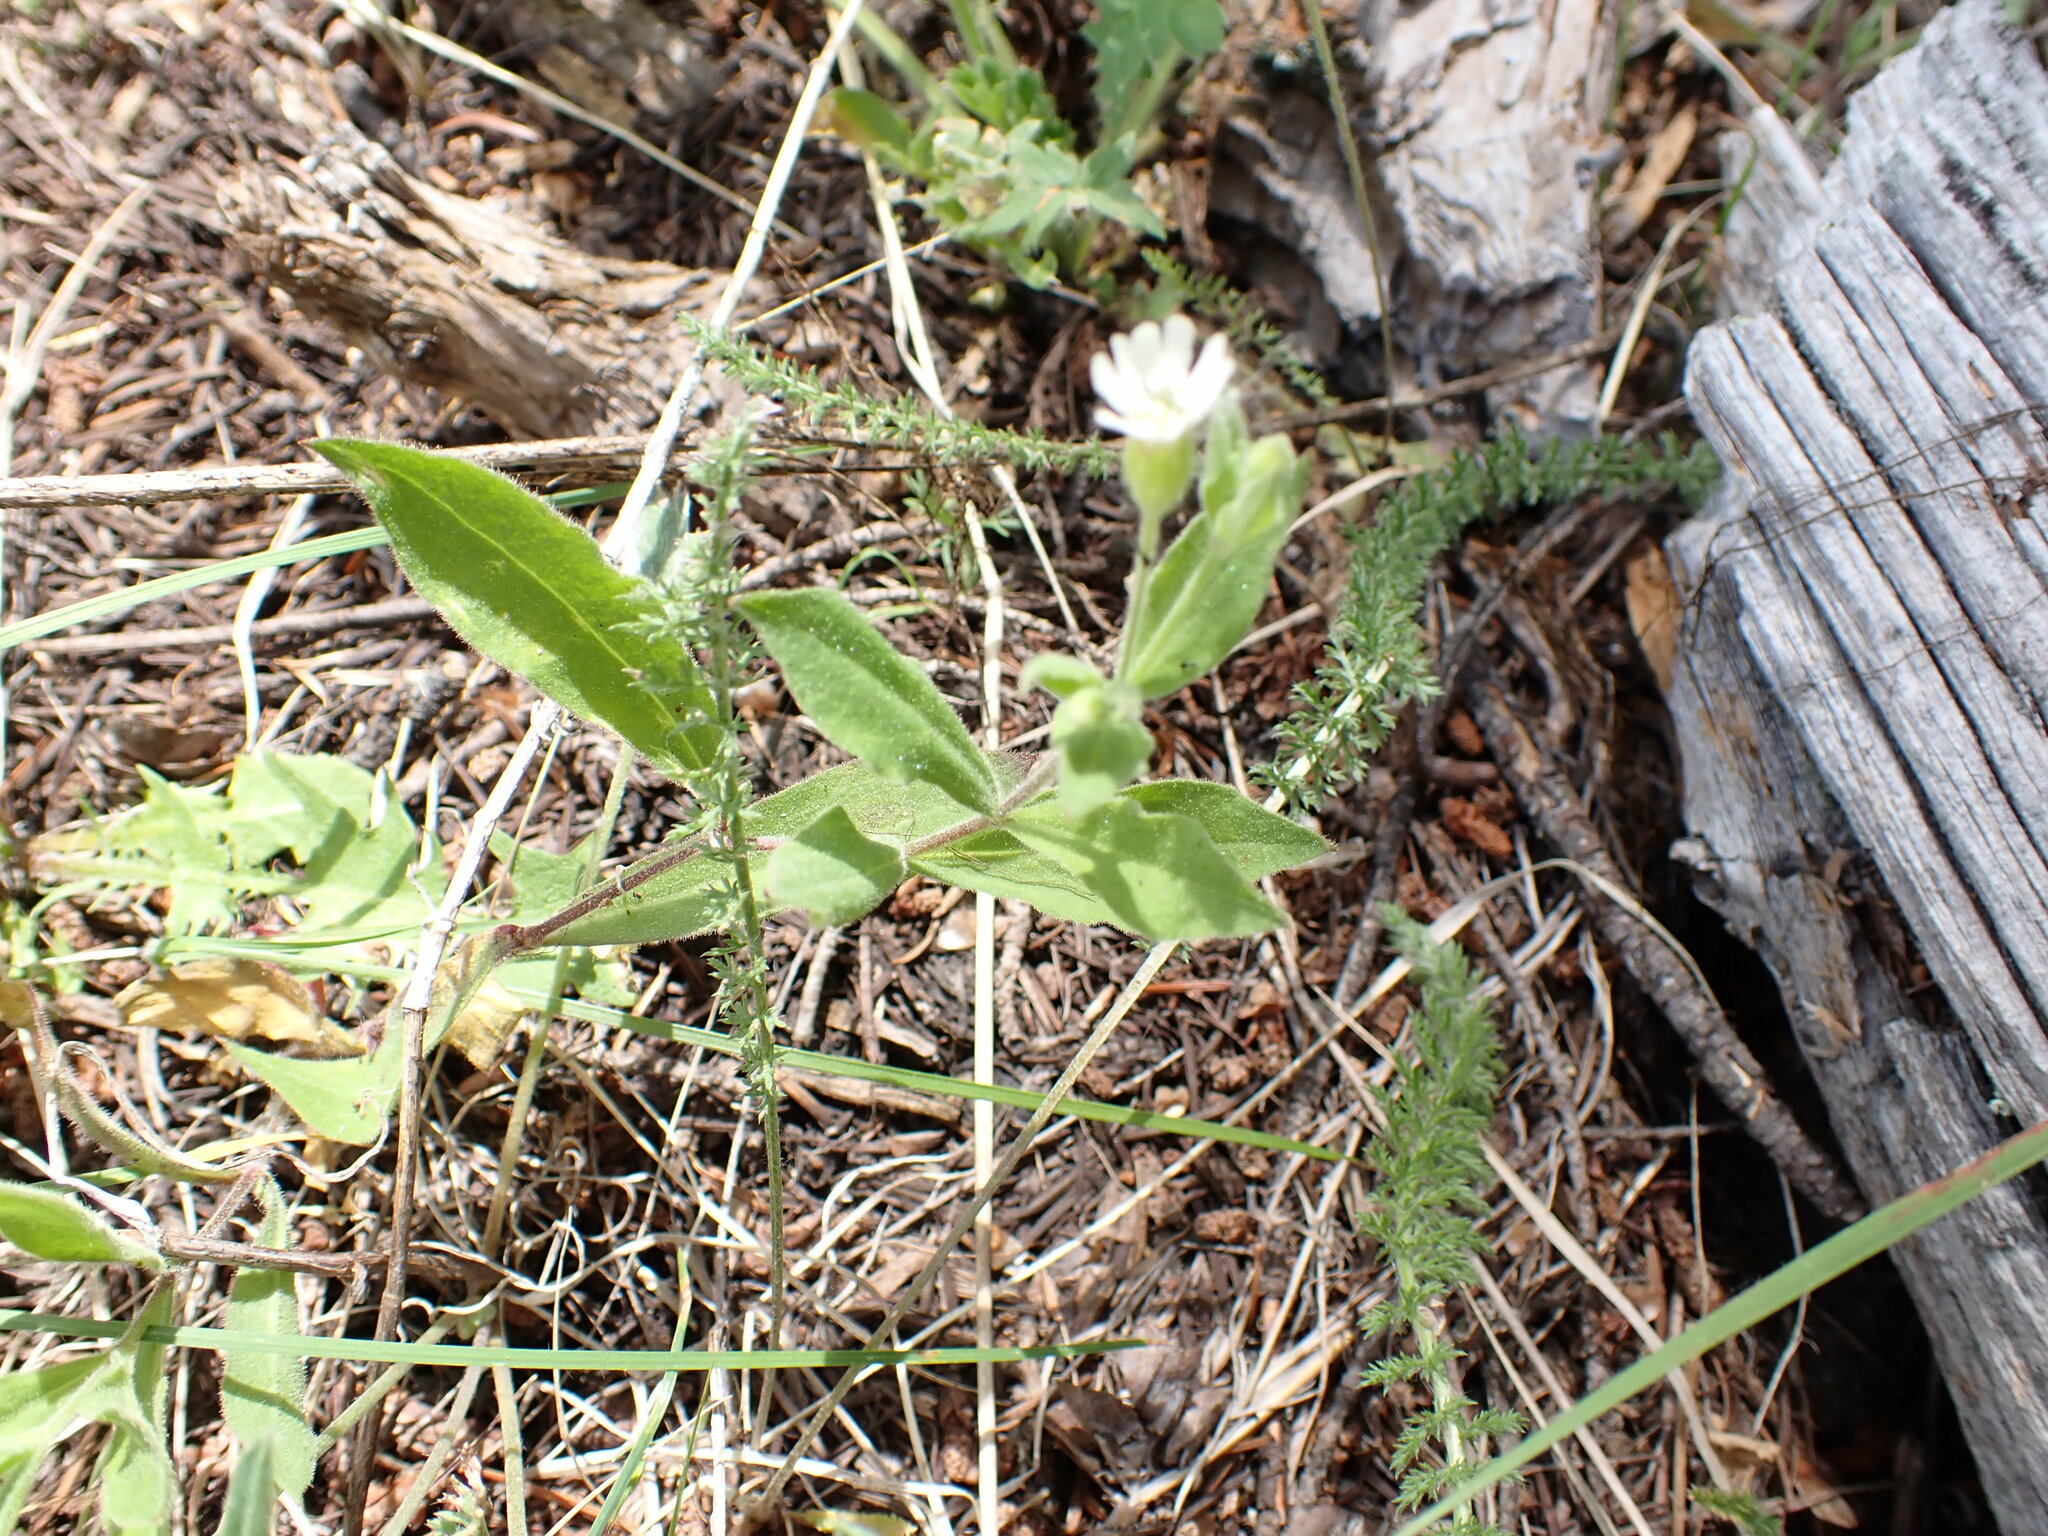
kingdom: Plantae
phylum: Tracheophyta
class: Magnoliopsida
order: Caryophyllales
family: Caryophyllaceae
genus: Silene
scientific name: Silene menziesii
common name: Menzies's catchfly
